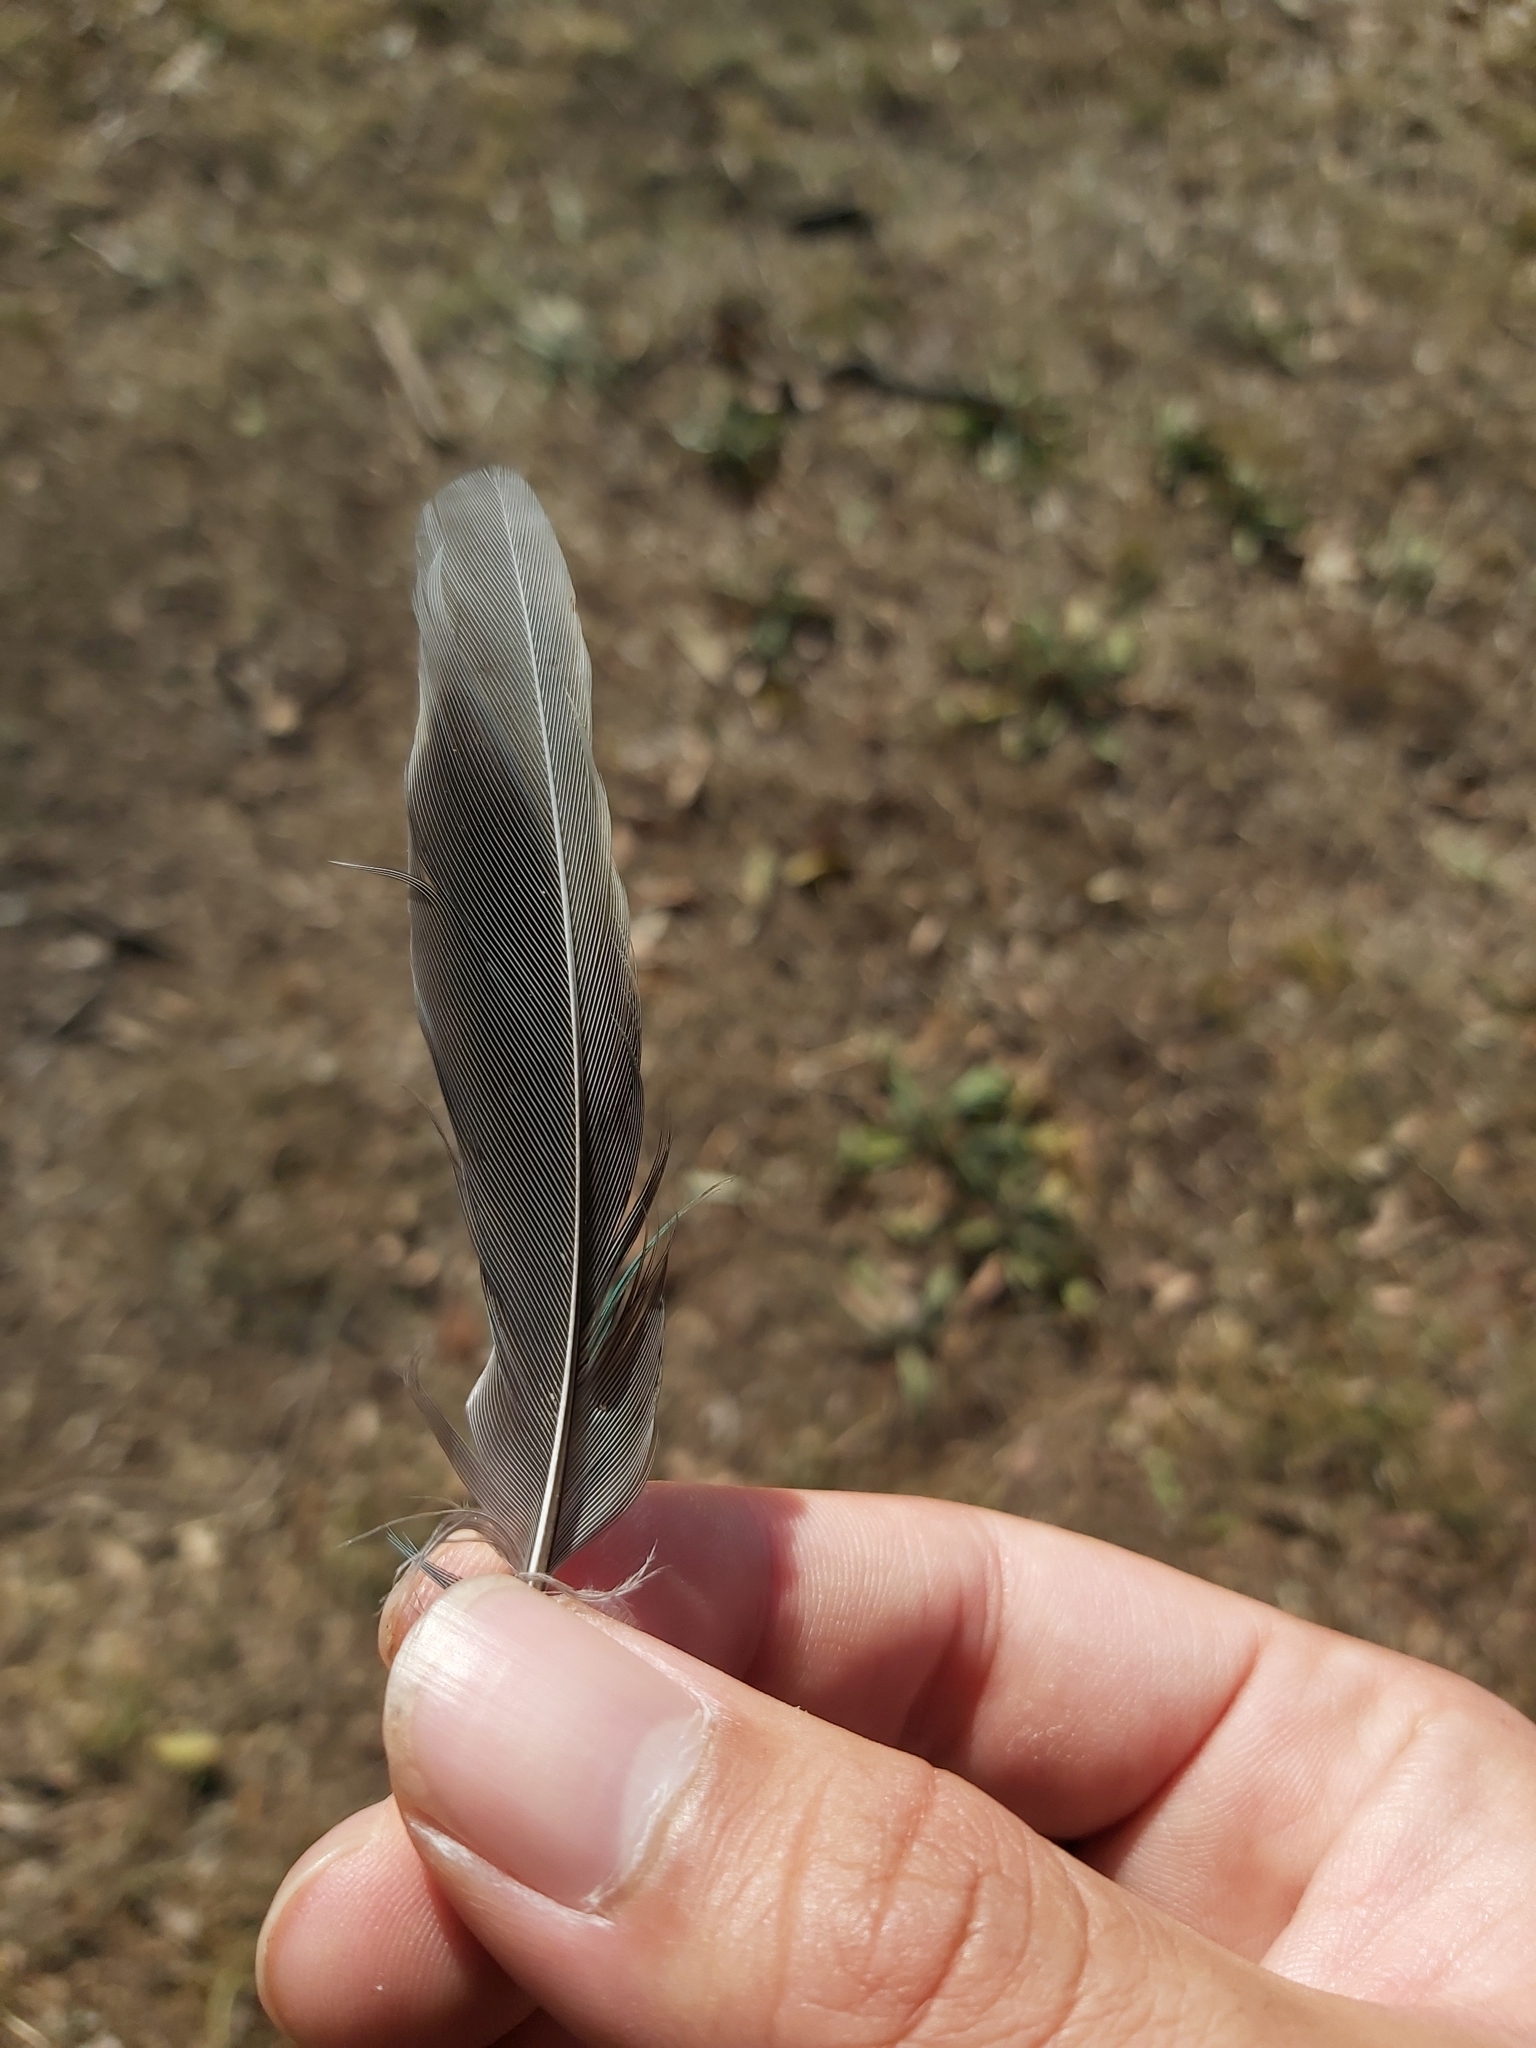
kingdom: Animalia
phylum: Chordata
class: Aves
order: Psittaciformes
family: Psittacidae
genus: Psephotus
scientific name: Psephotus haematonotus
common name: Red-rumped parrot
